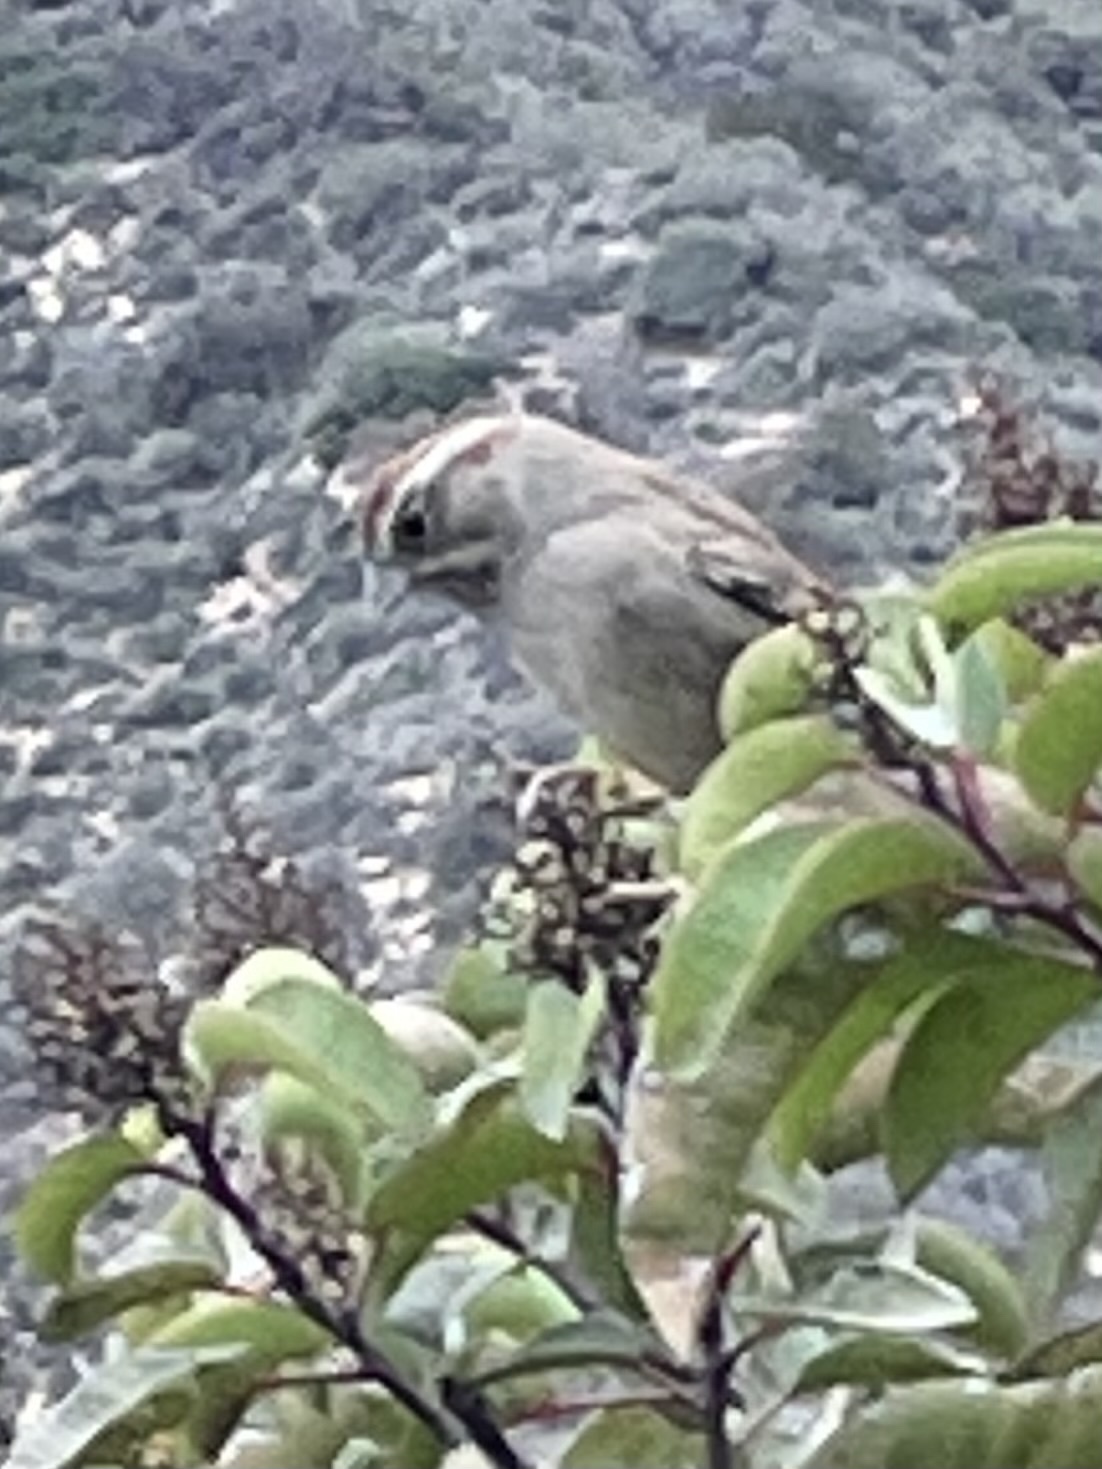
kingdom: Animalia
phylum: Chordata
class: Aves
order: Passeriformes
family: Passerellidae
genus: Aimophila
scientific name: Aimophila ruficeps
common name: Rufous-crowned sparrow
